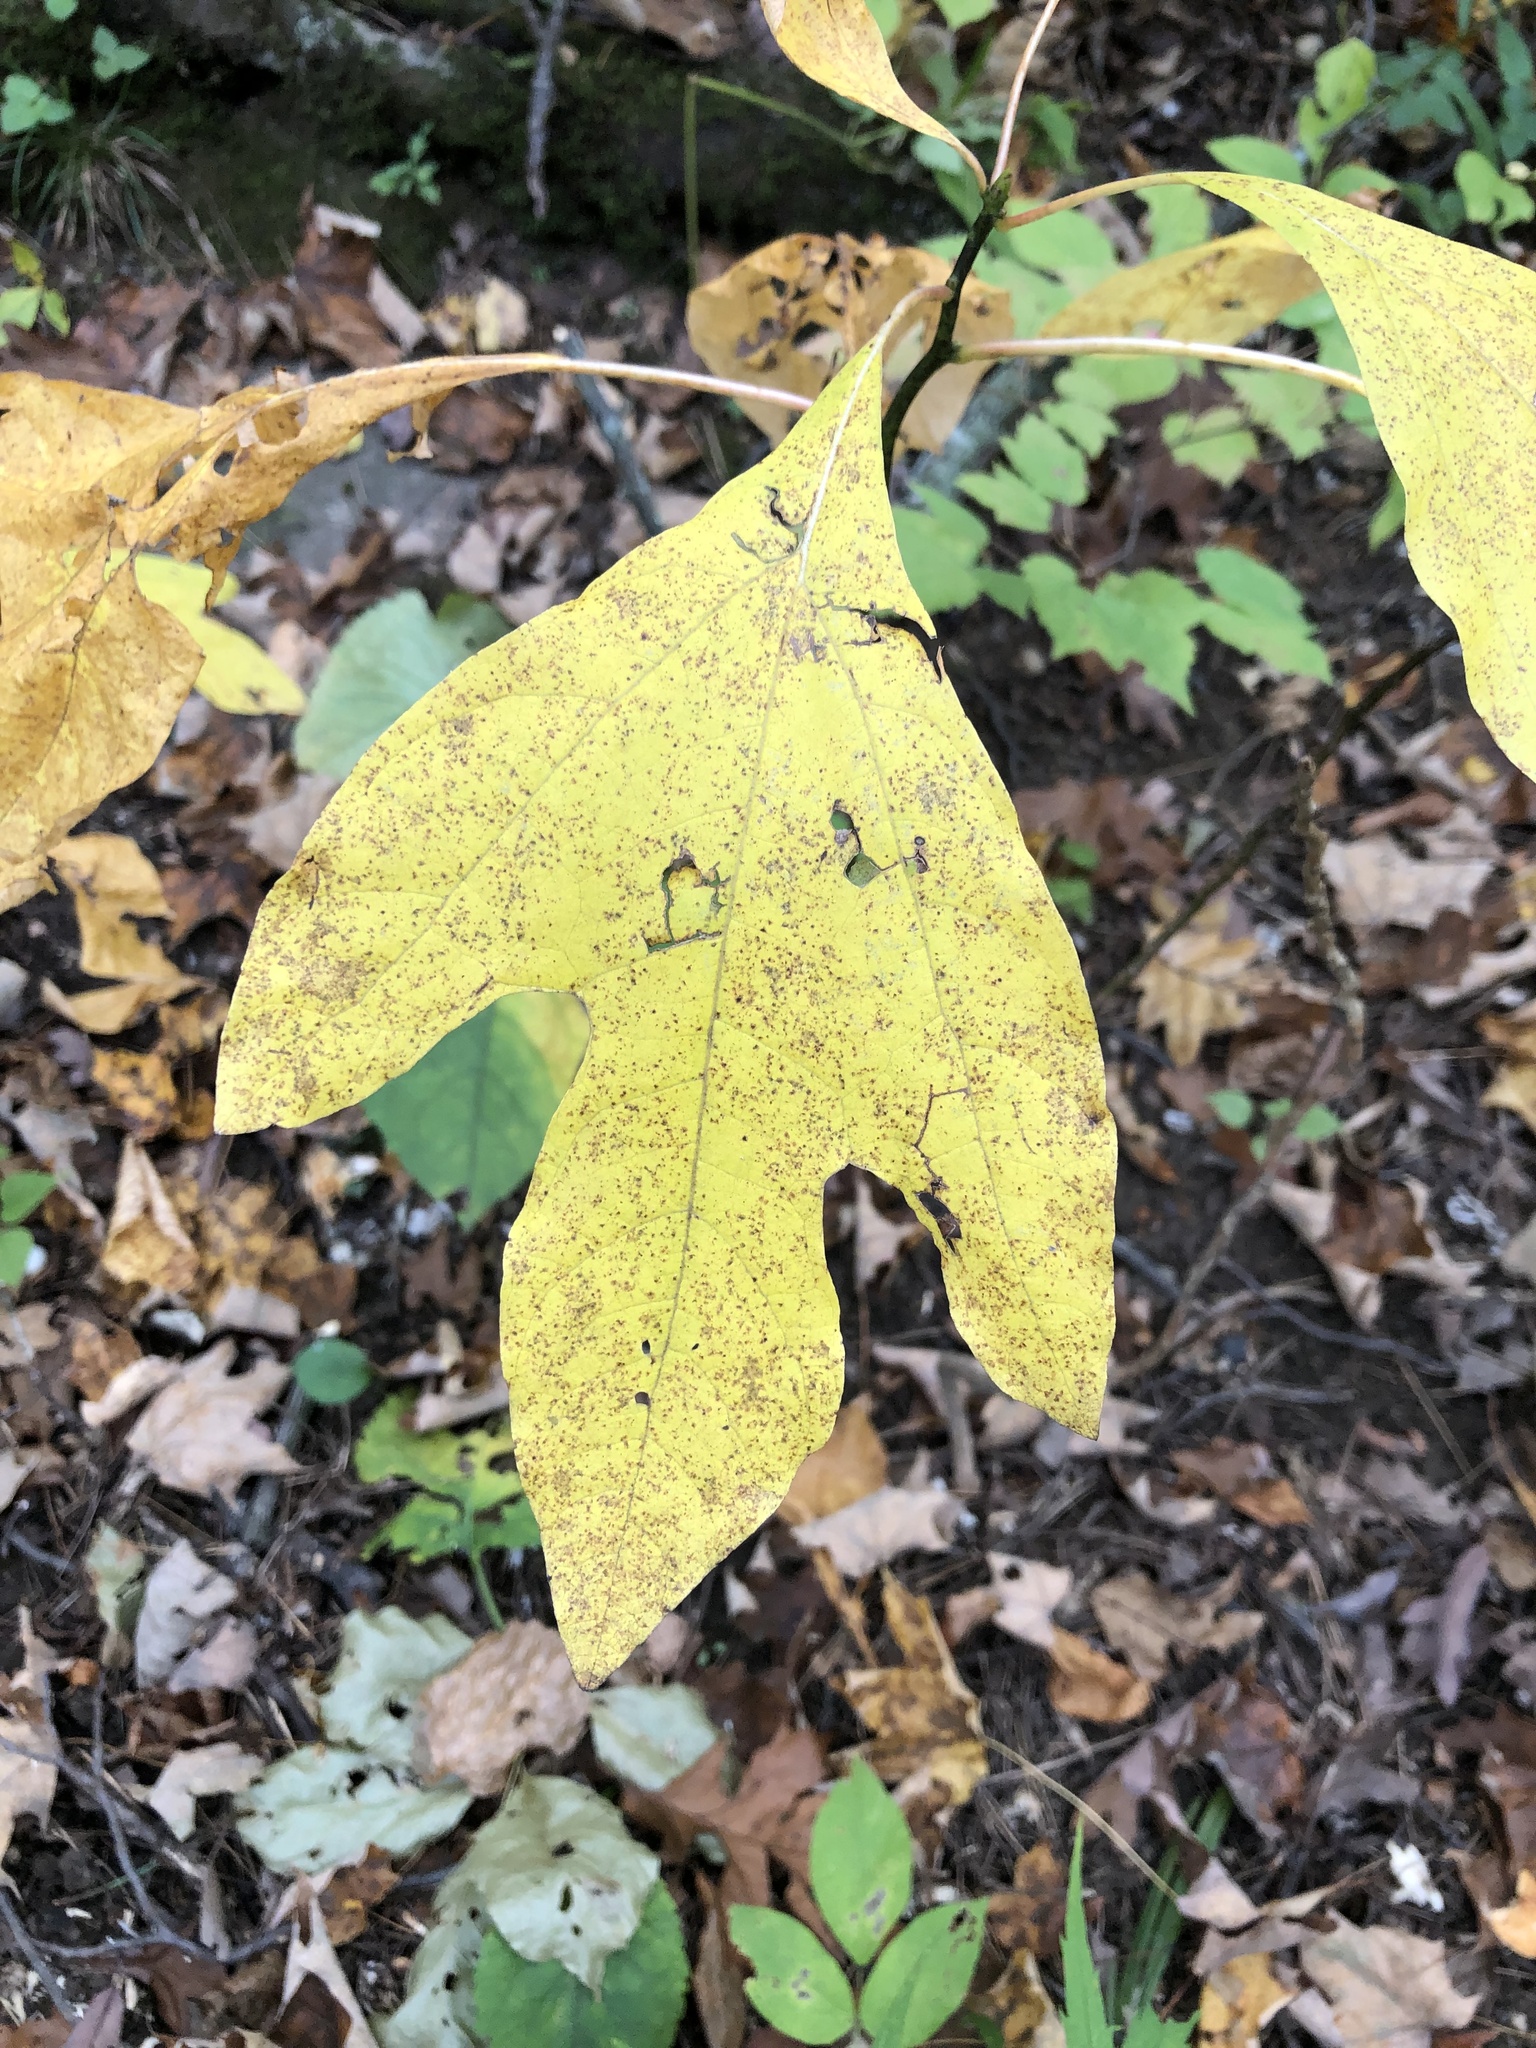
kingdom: Plantae
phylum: Tracheophyta
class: Magnoliopsida
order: Laurales
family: Lauraceae
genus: Sassafras
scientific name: Sassafras albidum
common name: Sassafras
